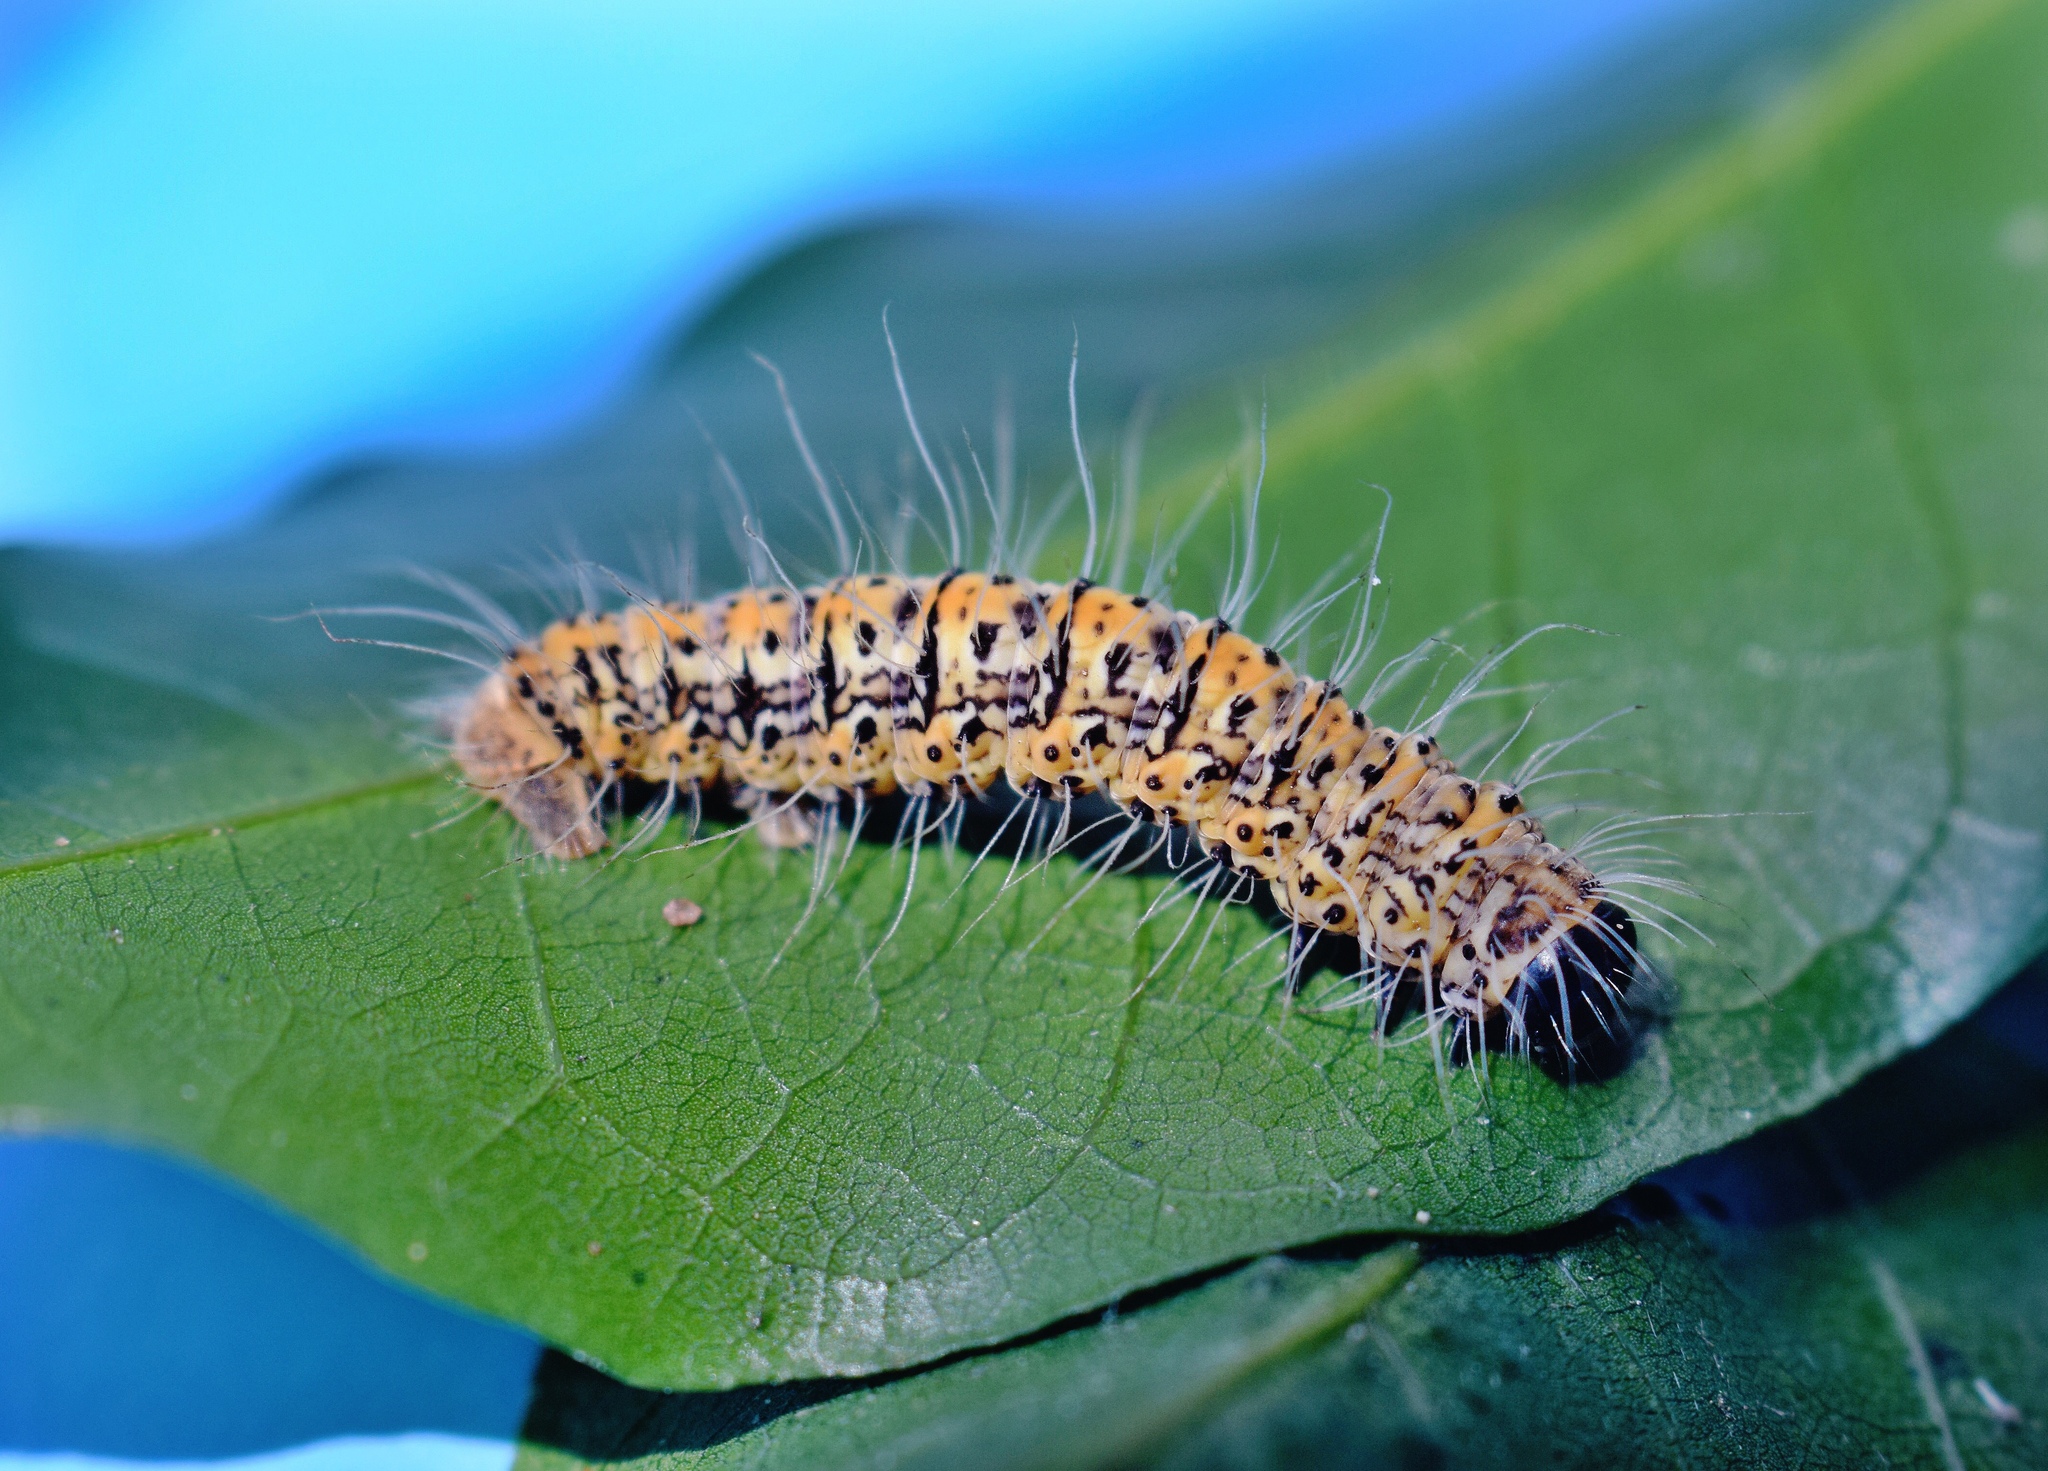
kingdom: Animalia
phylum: Arthropoda
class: Insecta
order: Lepidoptera
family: Geometridae
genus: Zerenopsis
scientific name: Zerenopsis geometrina
